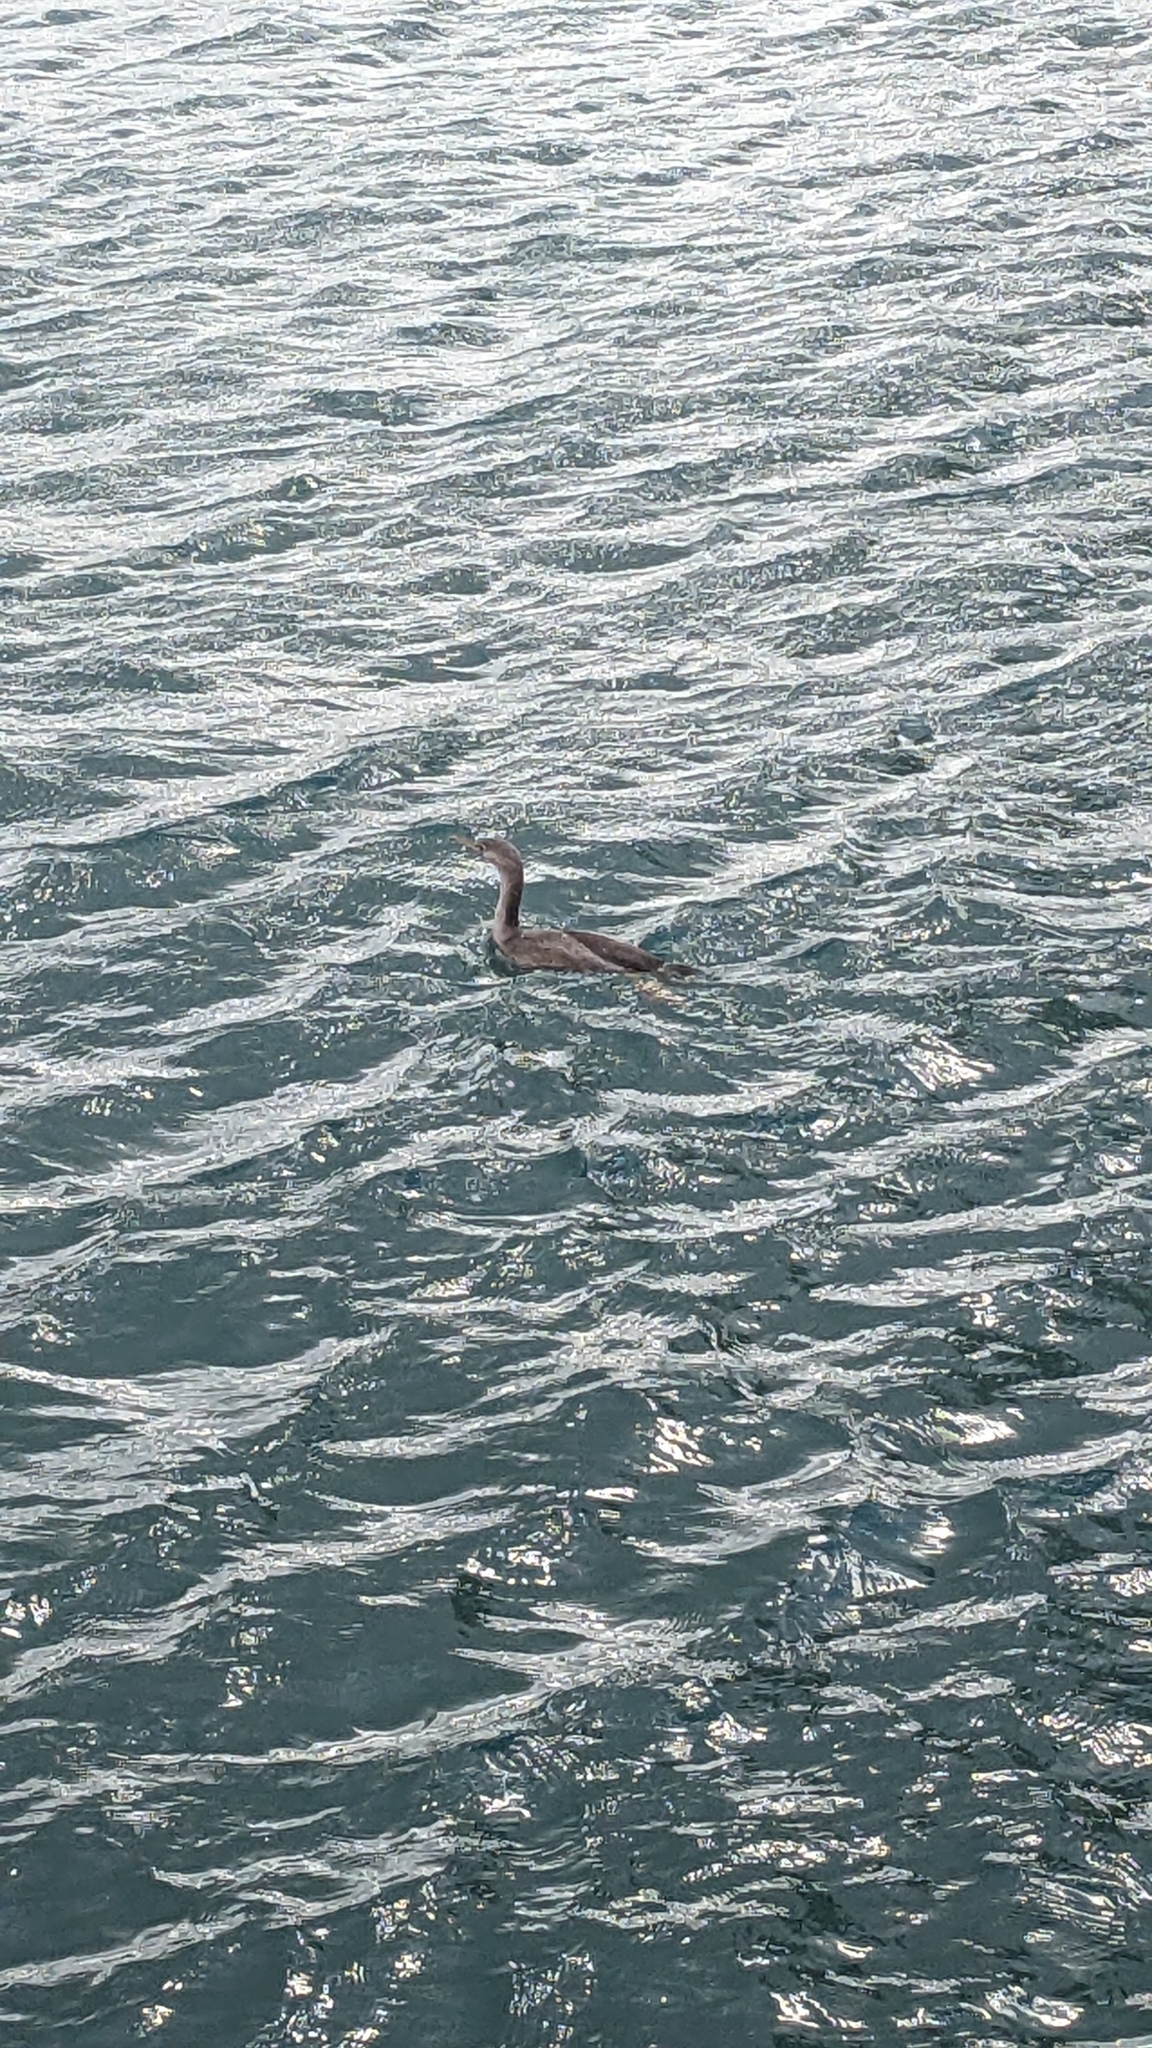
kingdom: Animalia
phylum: Chordata
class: Aves
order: Suliformes
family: Phalacrocoracidae
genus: Phalacrocorax
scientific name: Phalacrocorax punctatus
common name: Spotted shag
